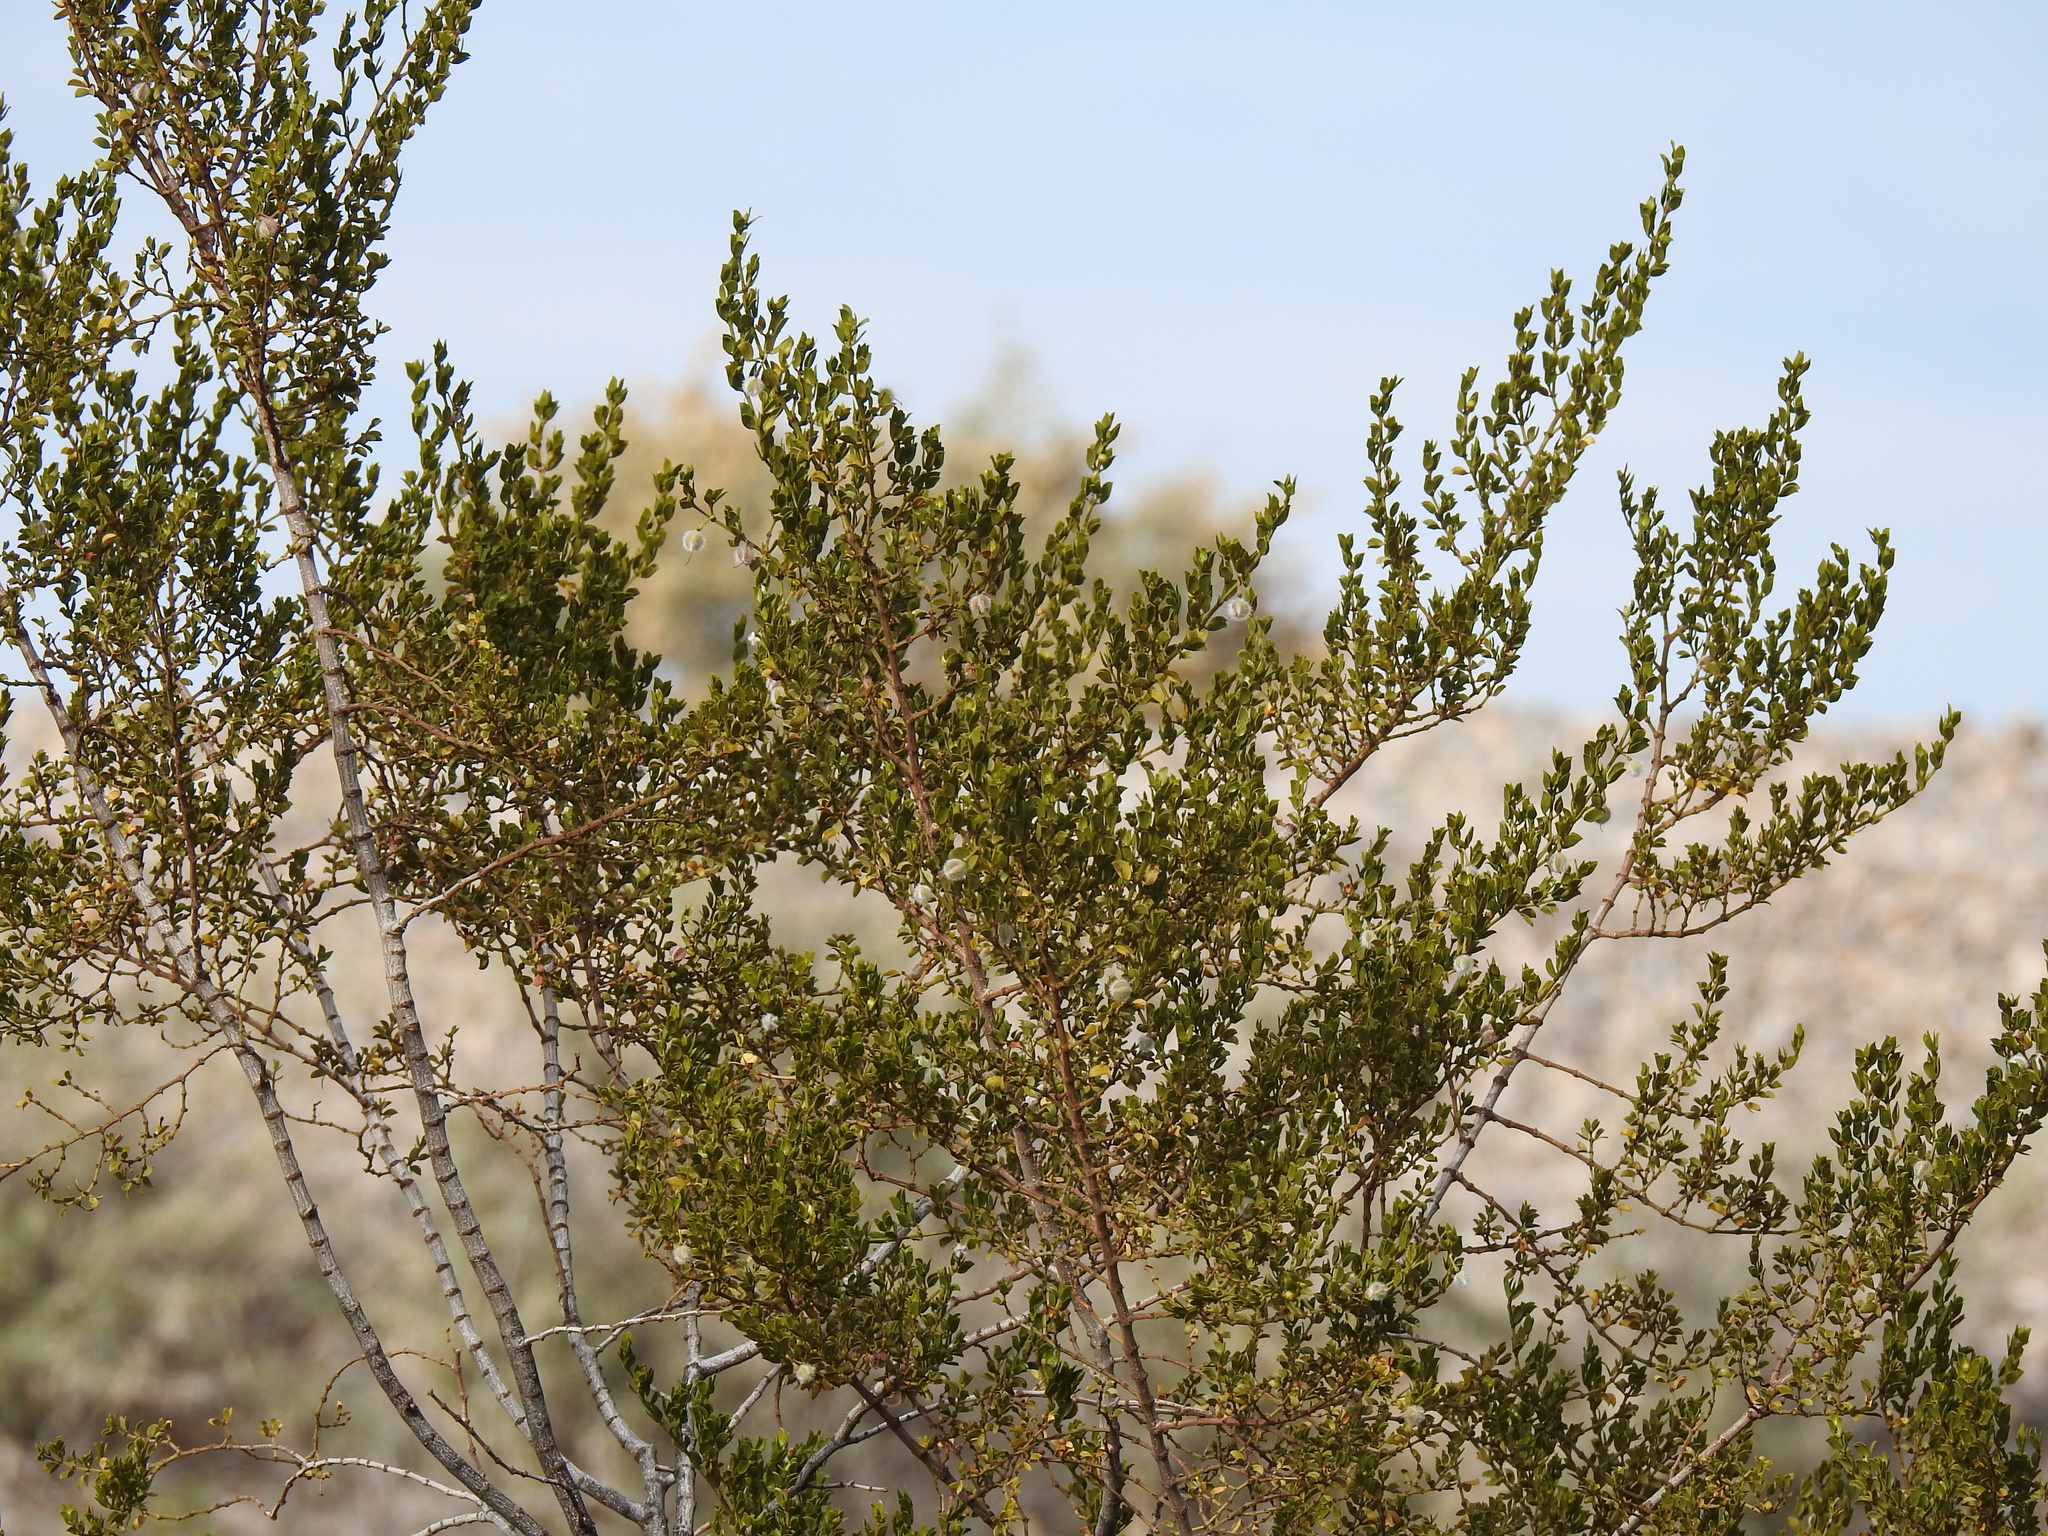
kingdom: Plantae
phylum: Tracheophyta
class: Magnoliopsida
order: Zygophyllales
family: Zygophyllaceae
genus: Larrea
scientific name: Larrea tridentata
